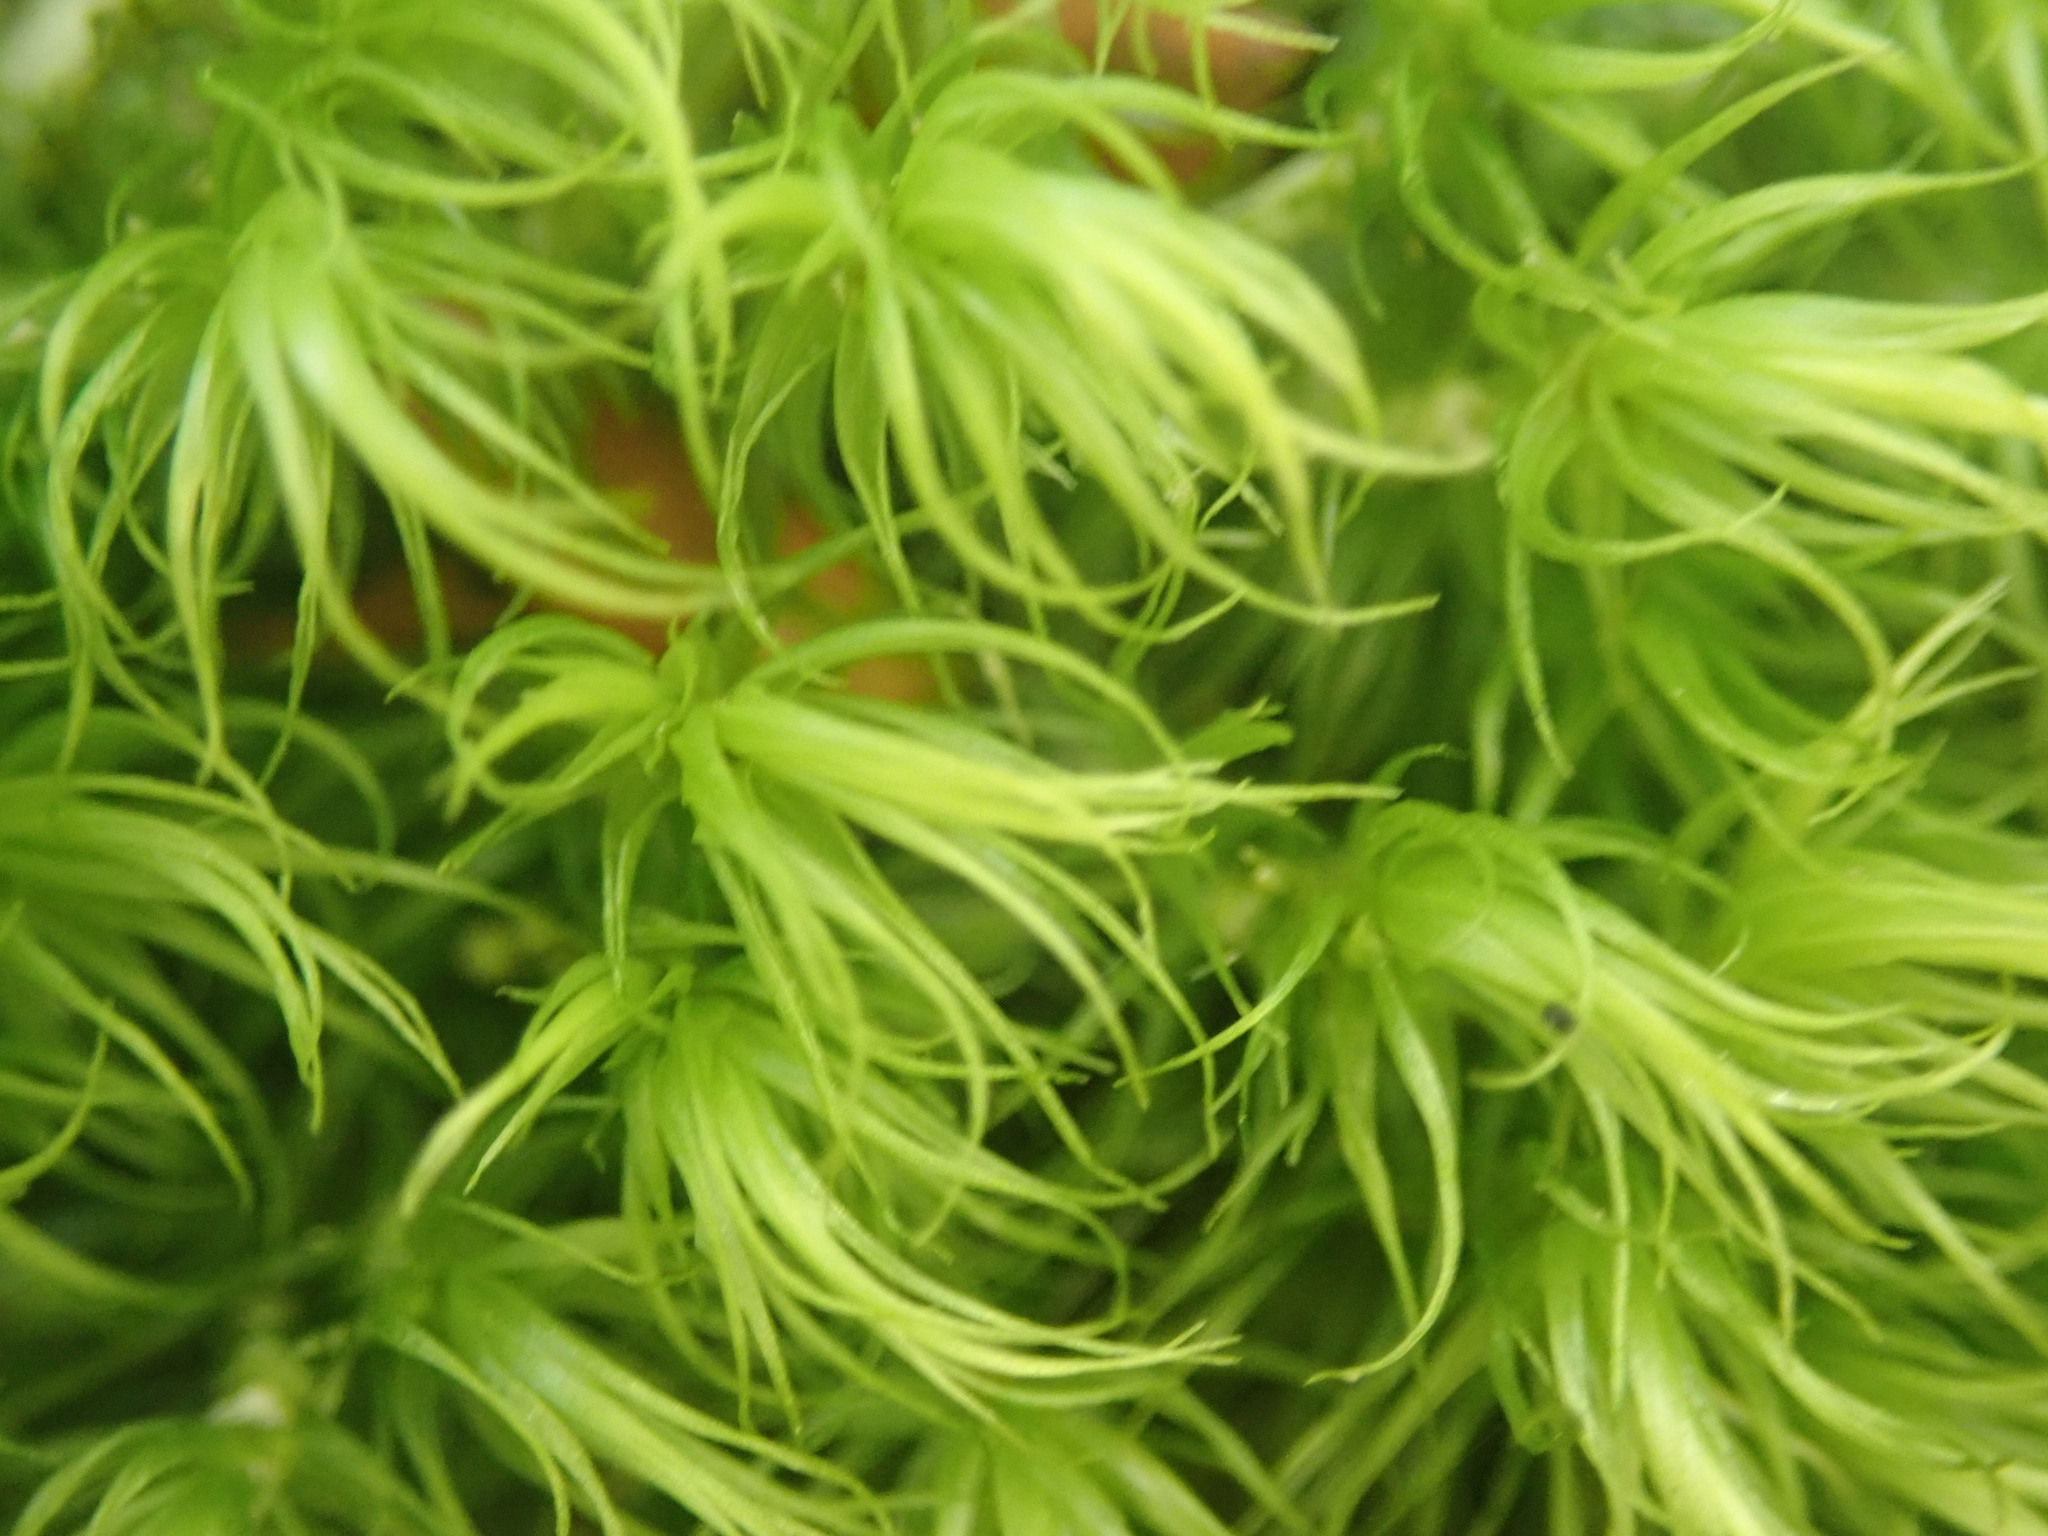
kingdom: Plantae
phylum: Bryophyta
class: Bryopsida
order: Dicranales
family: Dicranaceae
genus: Dicranum
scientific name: Dicranum scoparium
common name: Broom fork-moss
